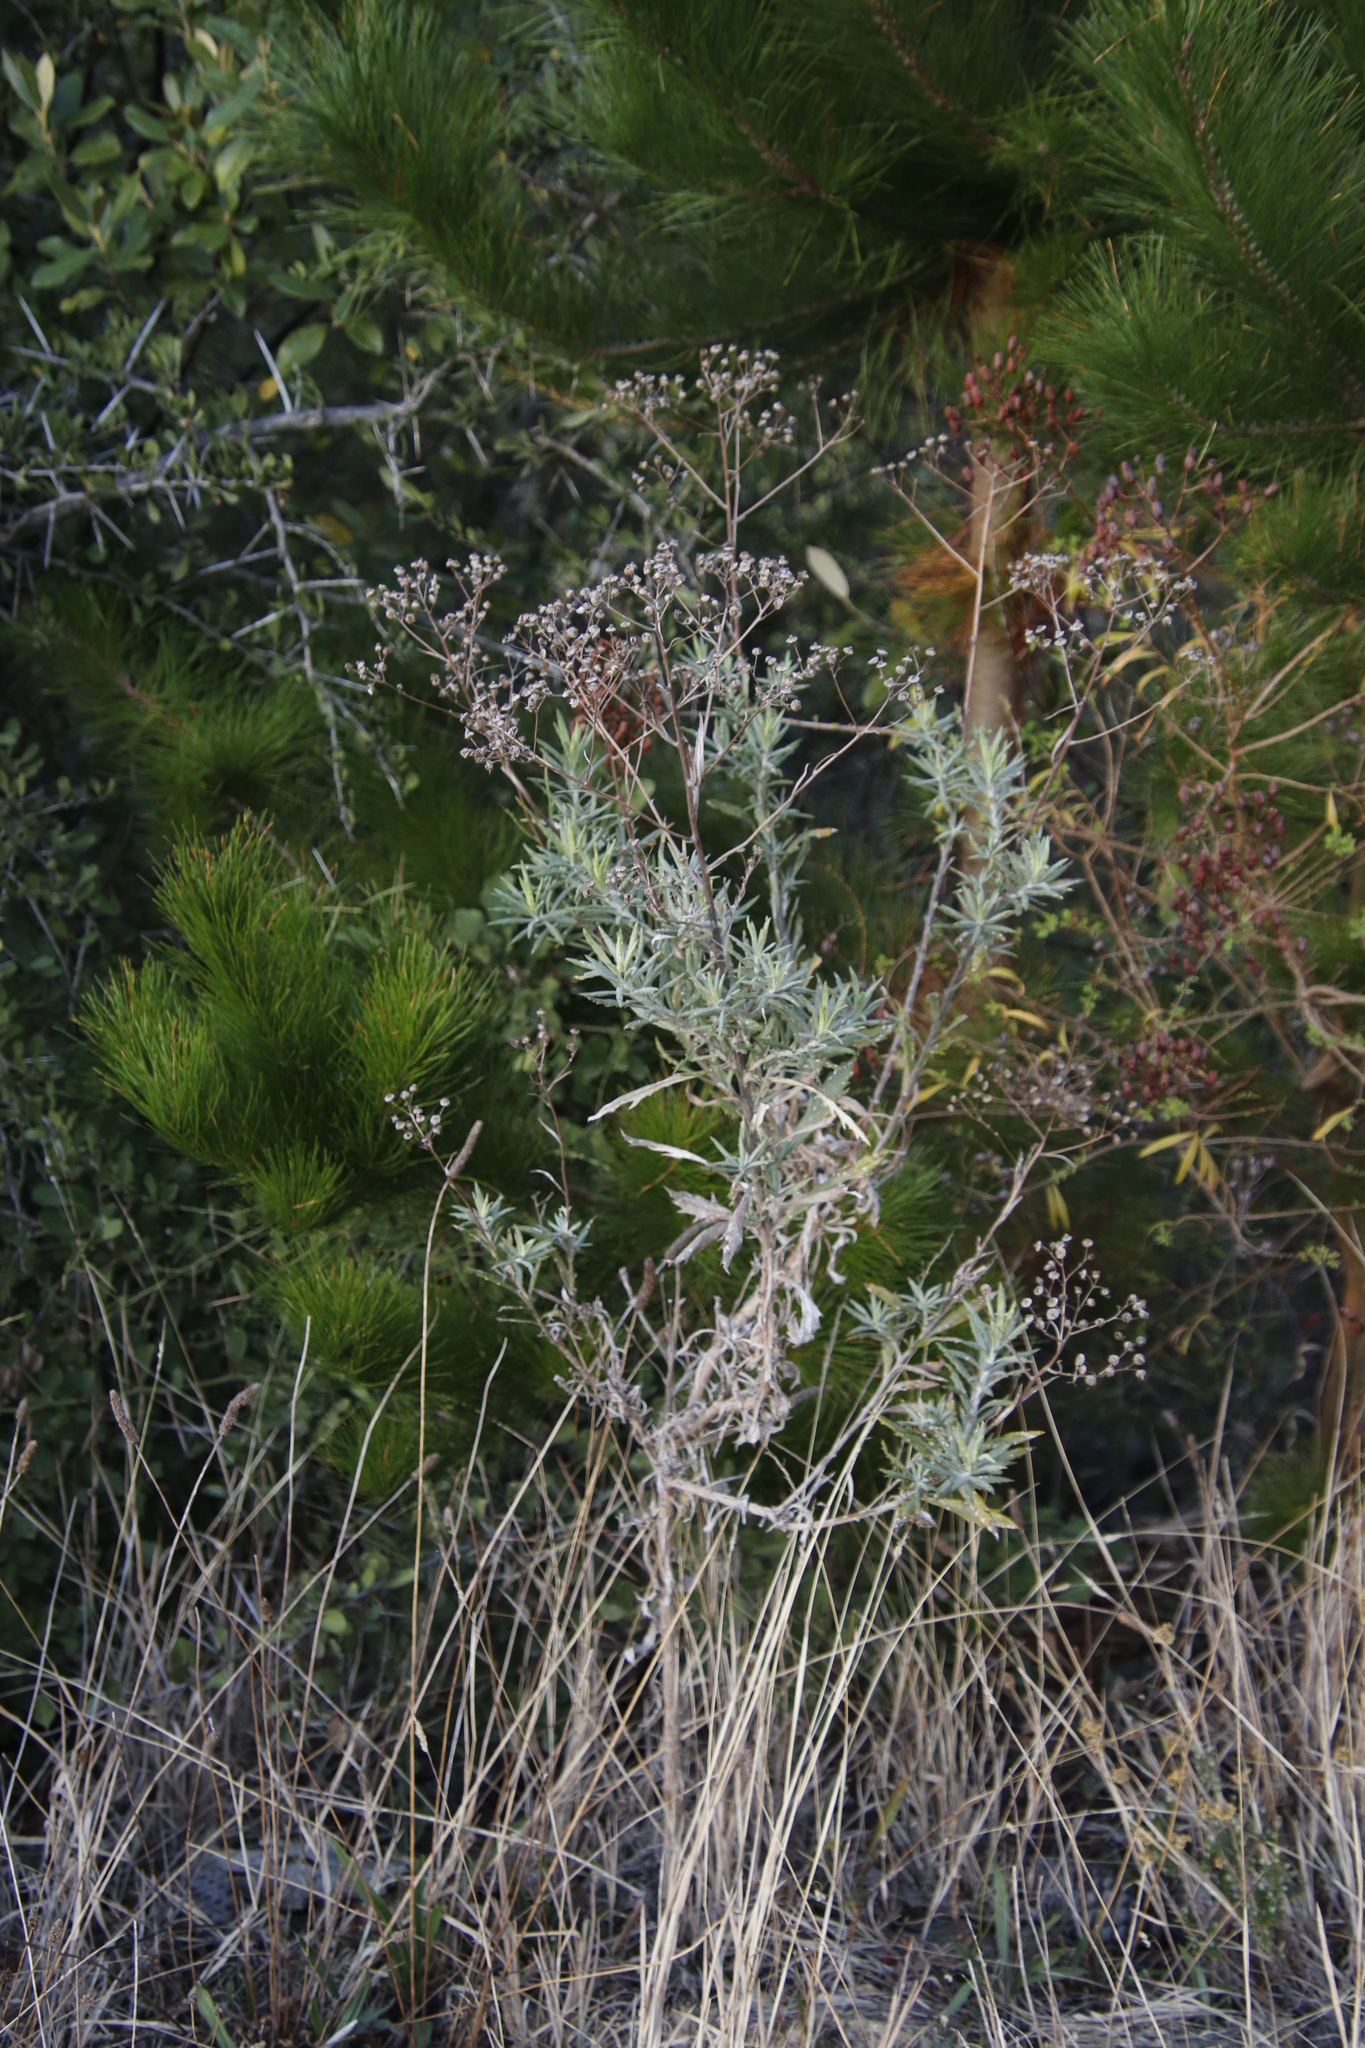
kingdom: Plantae
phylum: Tracheophyta
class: Magnoliopsida
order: Asterales
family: Asteraceae
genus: Senecio
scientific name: Senecio pterophorus
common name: Shoddy ragwort
